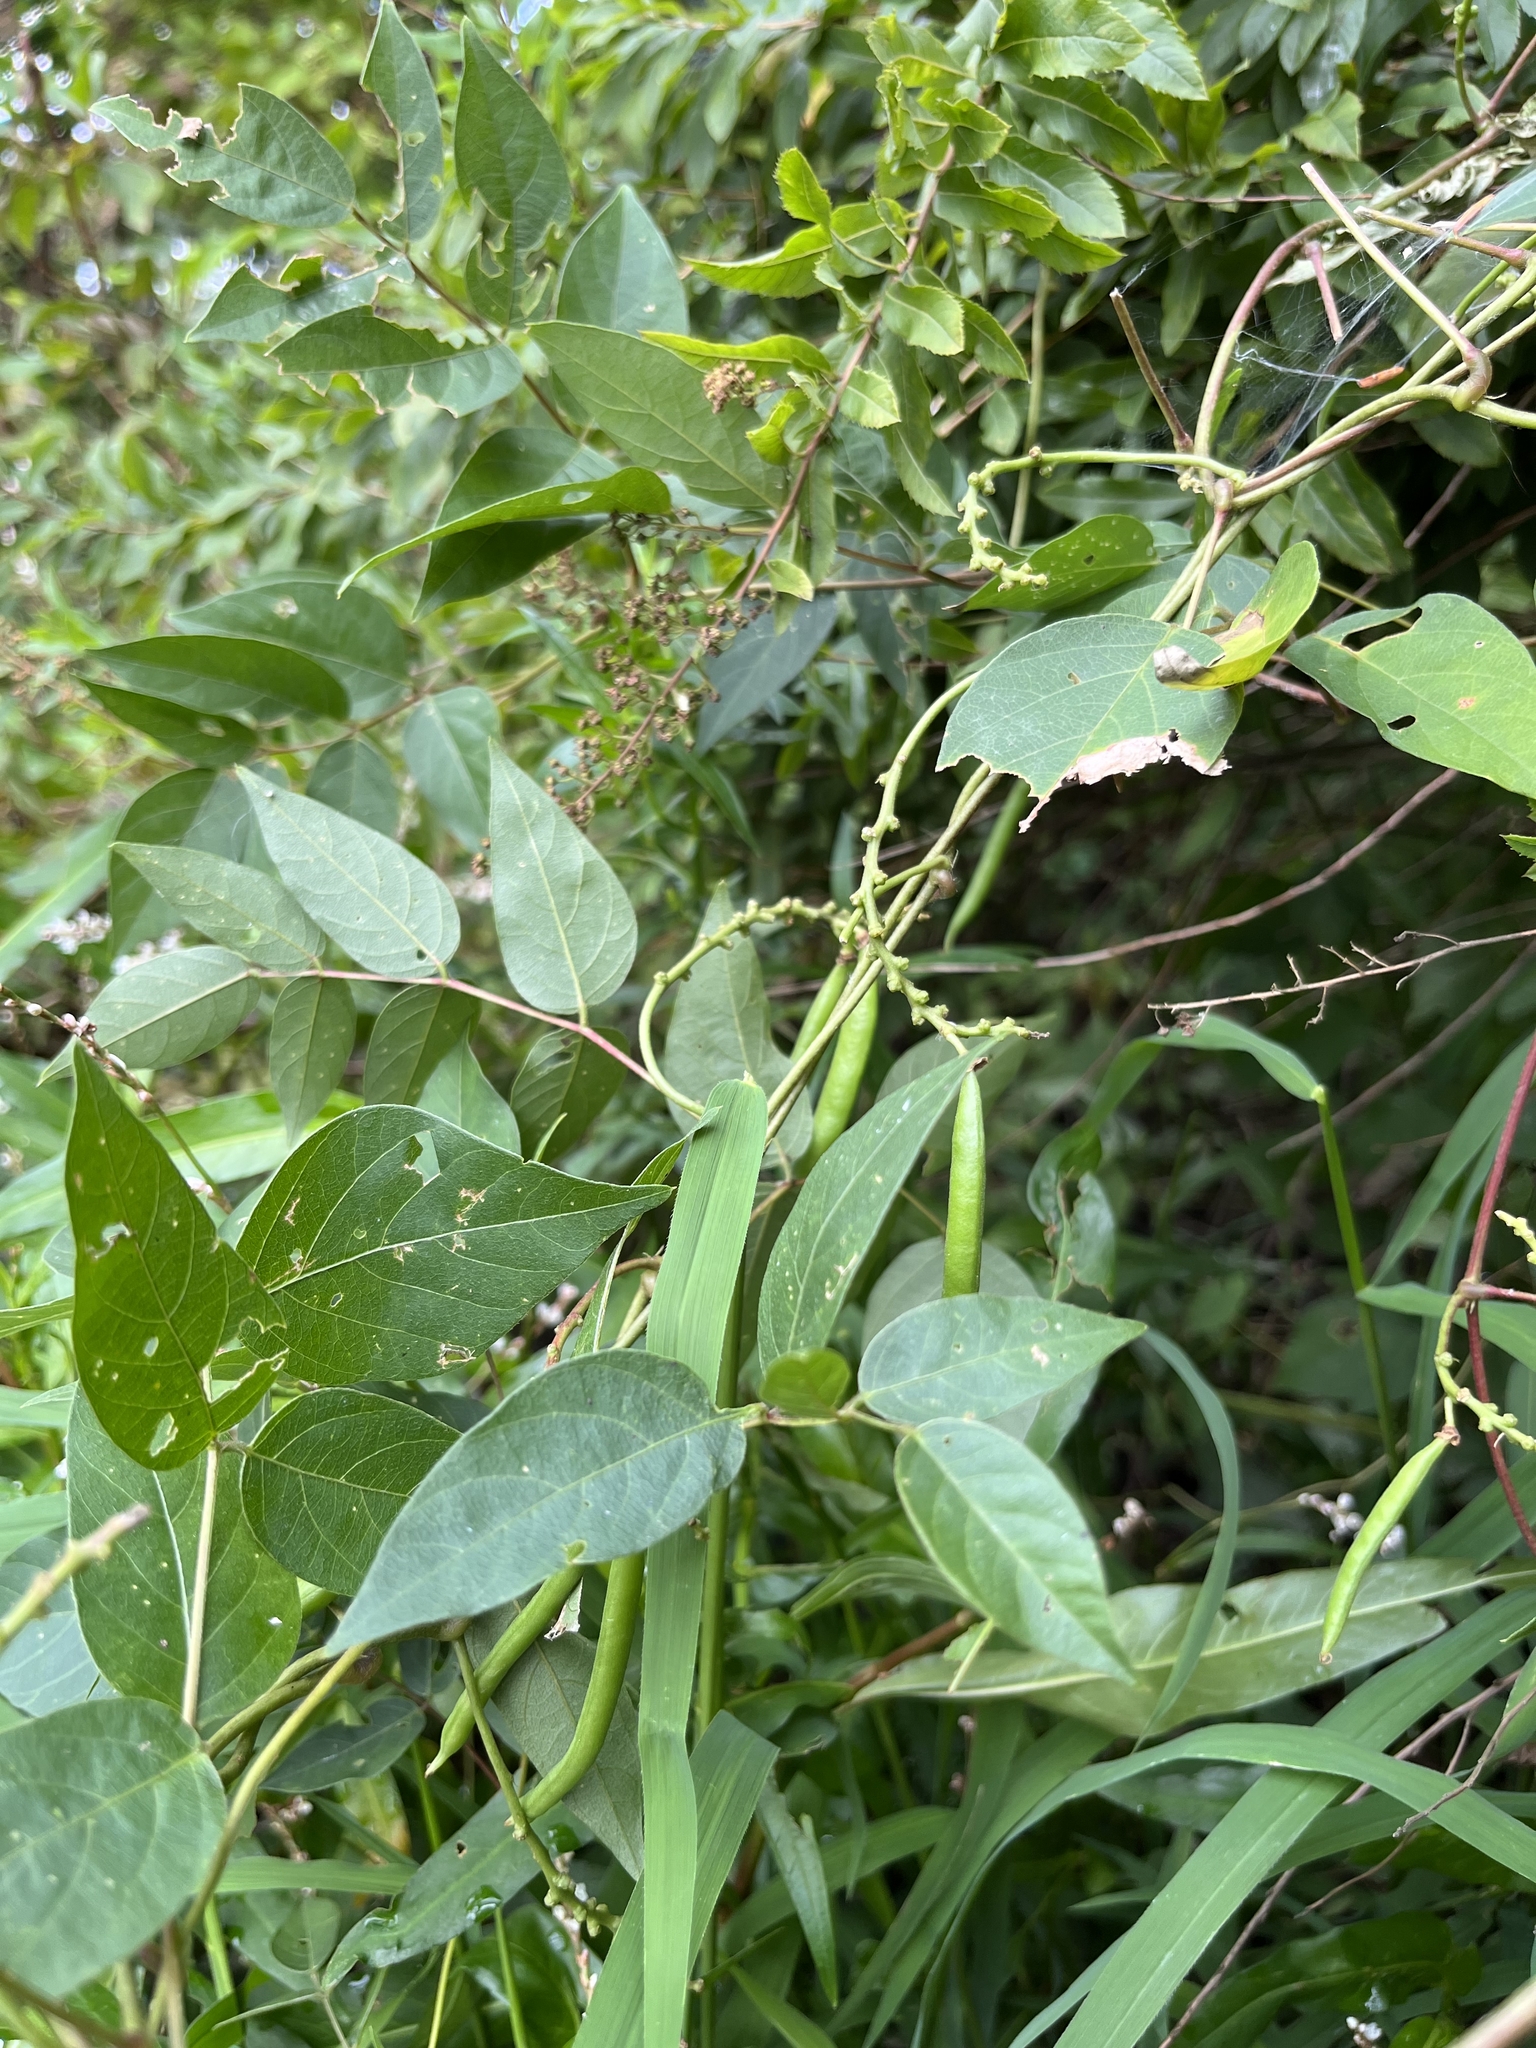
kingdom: Plantae
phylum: Tracheophyta
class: Magnoliopsida
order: Fabales
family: Fabaceae
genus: Apios
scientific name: Apios americana
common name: American potato-bean
